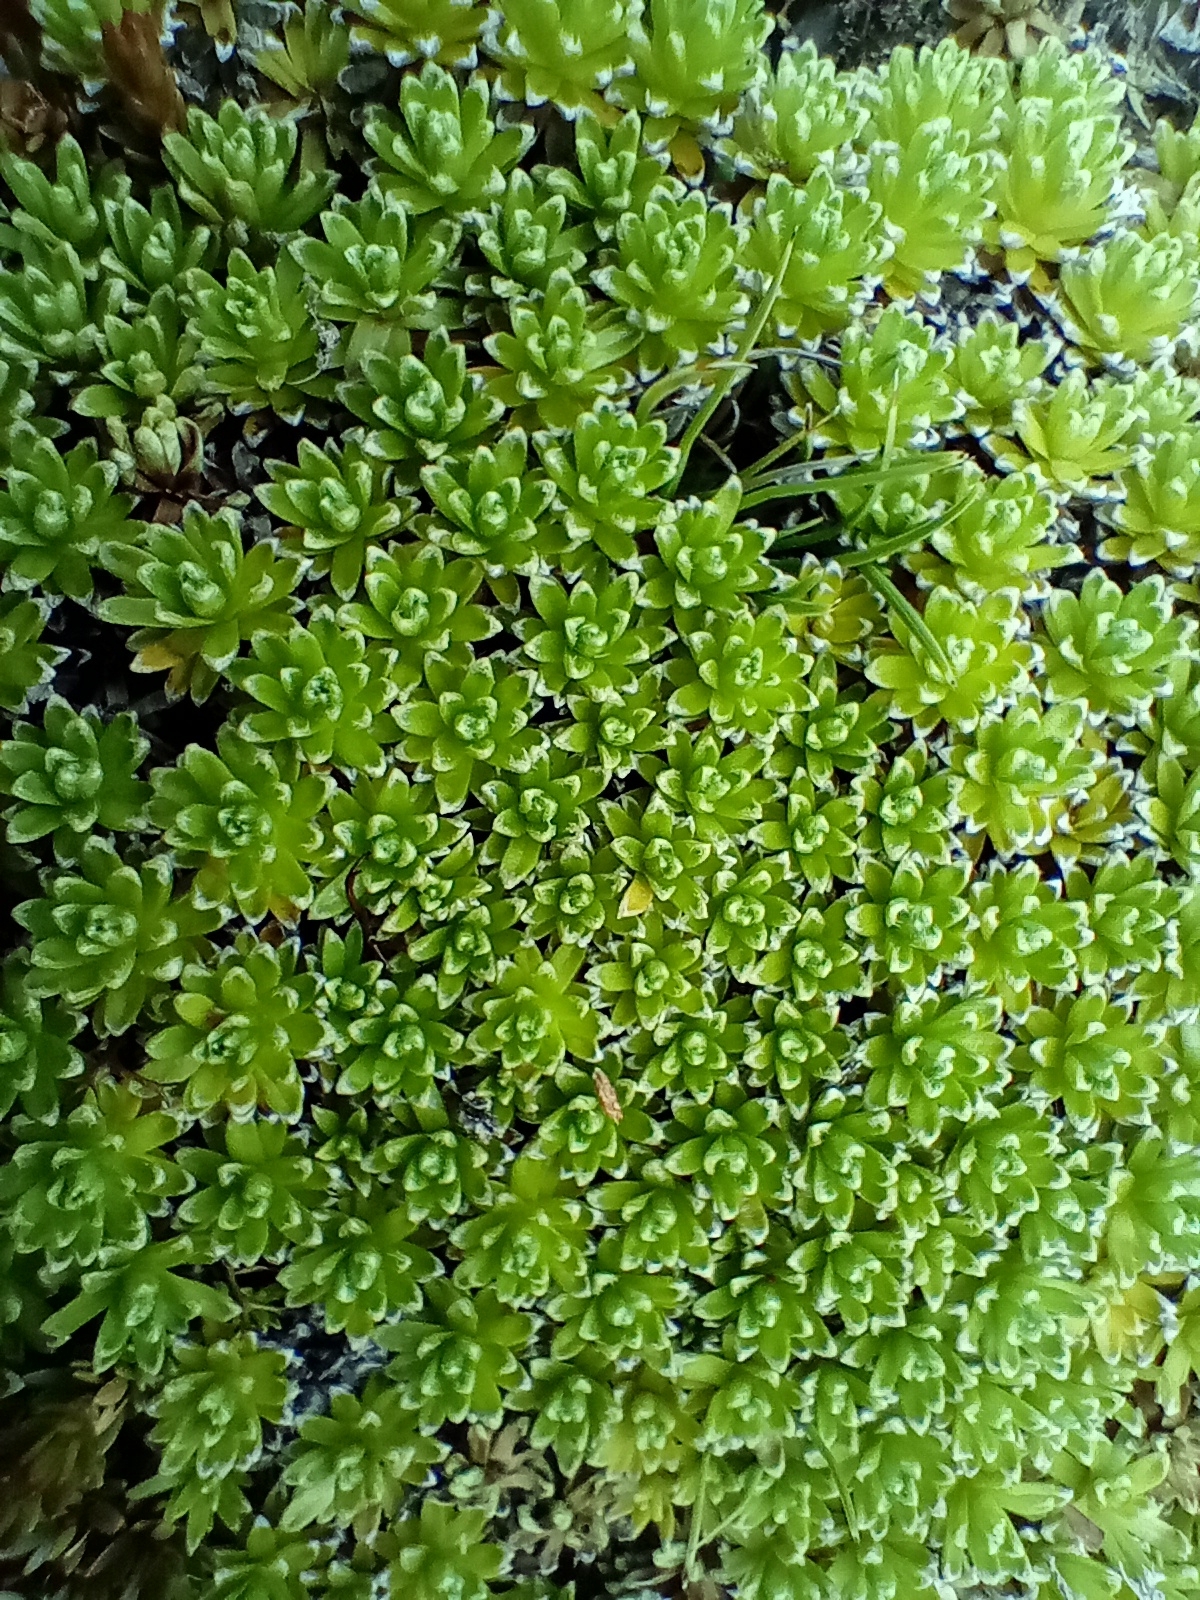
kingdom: Plantae
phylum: Tracheophyta
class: Magnoliopsida
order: Asterales
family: Asteraceae
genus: Raoulia
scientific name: Raoulia subsericea
